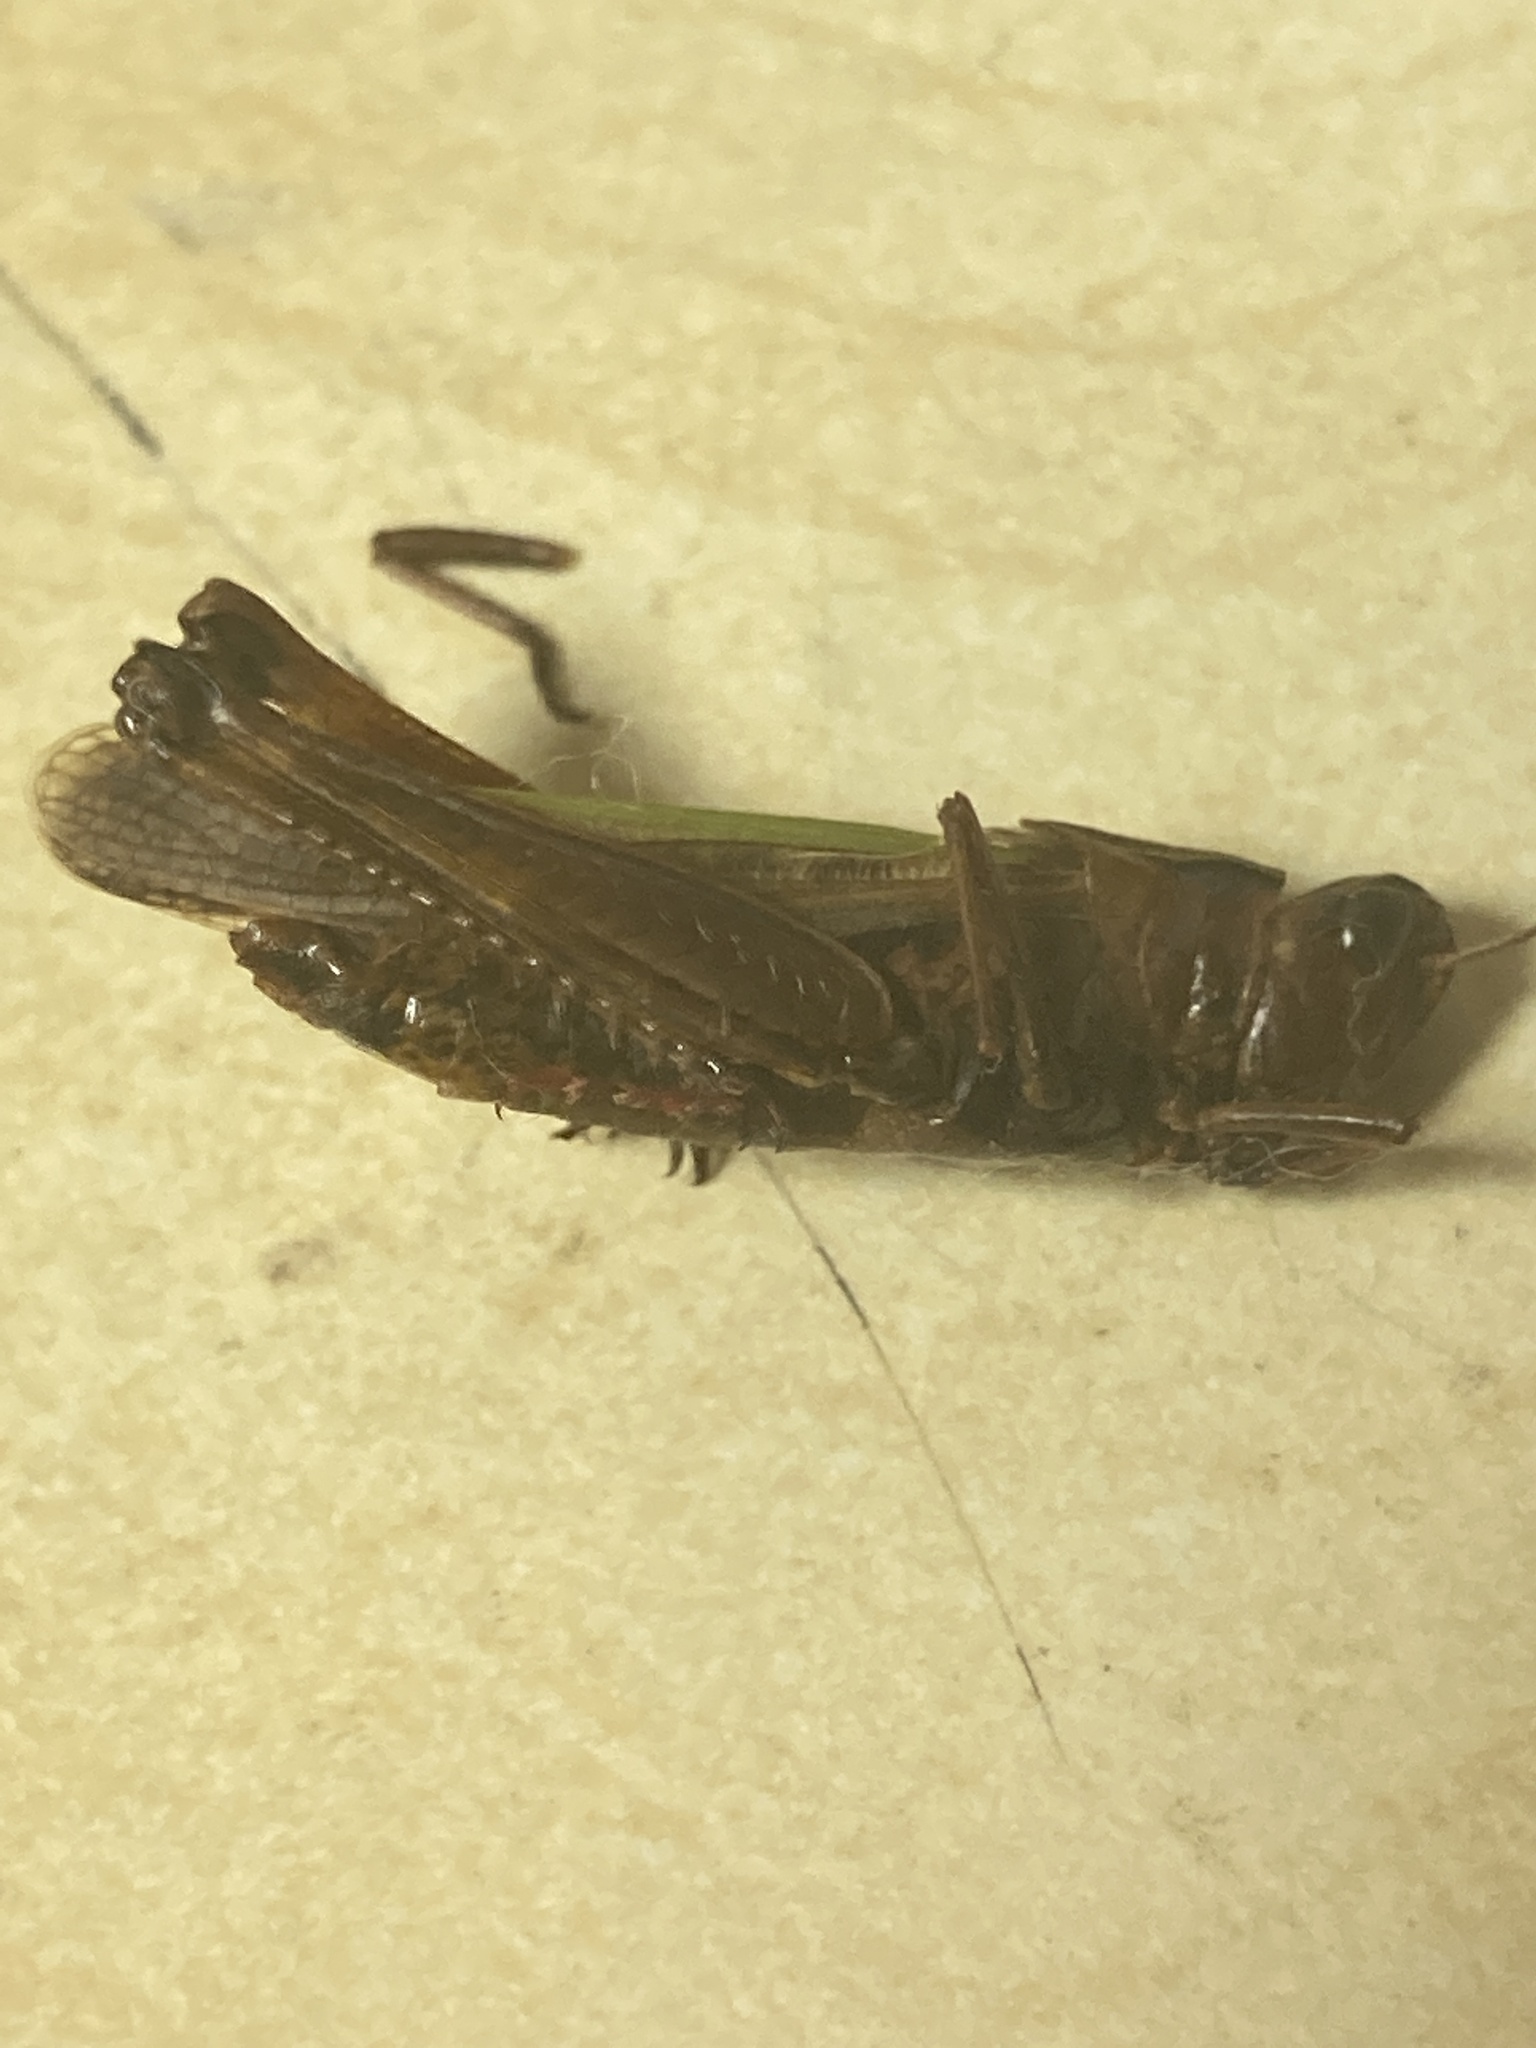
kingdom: Animalia
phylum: Arthropoda
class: Insecta
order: Orthoptera
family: Acrididae
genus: Omocestus
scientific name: Omocestus viridulus
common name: Common green grasshopper
